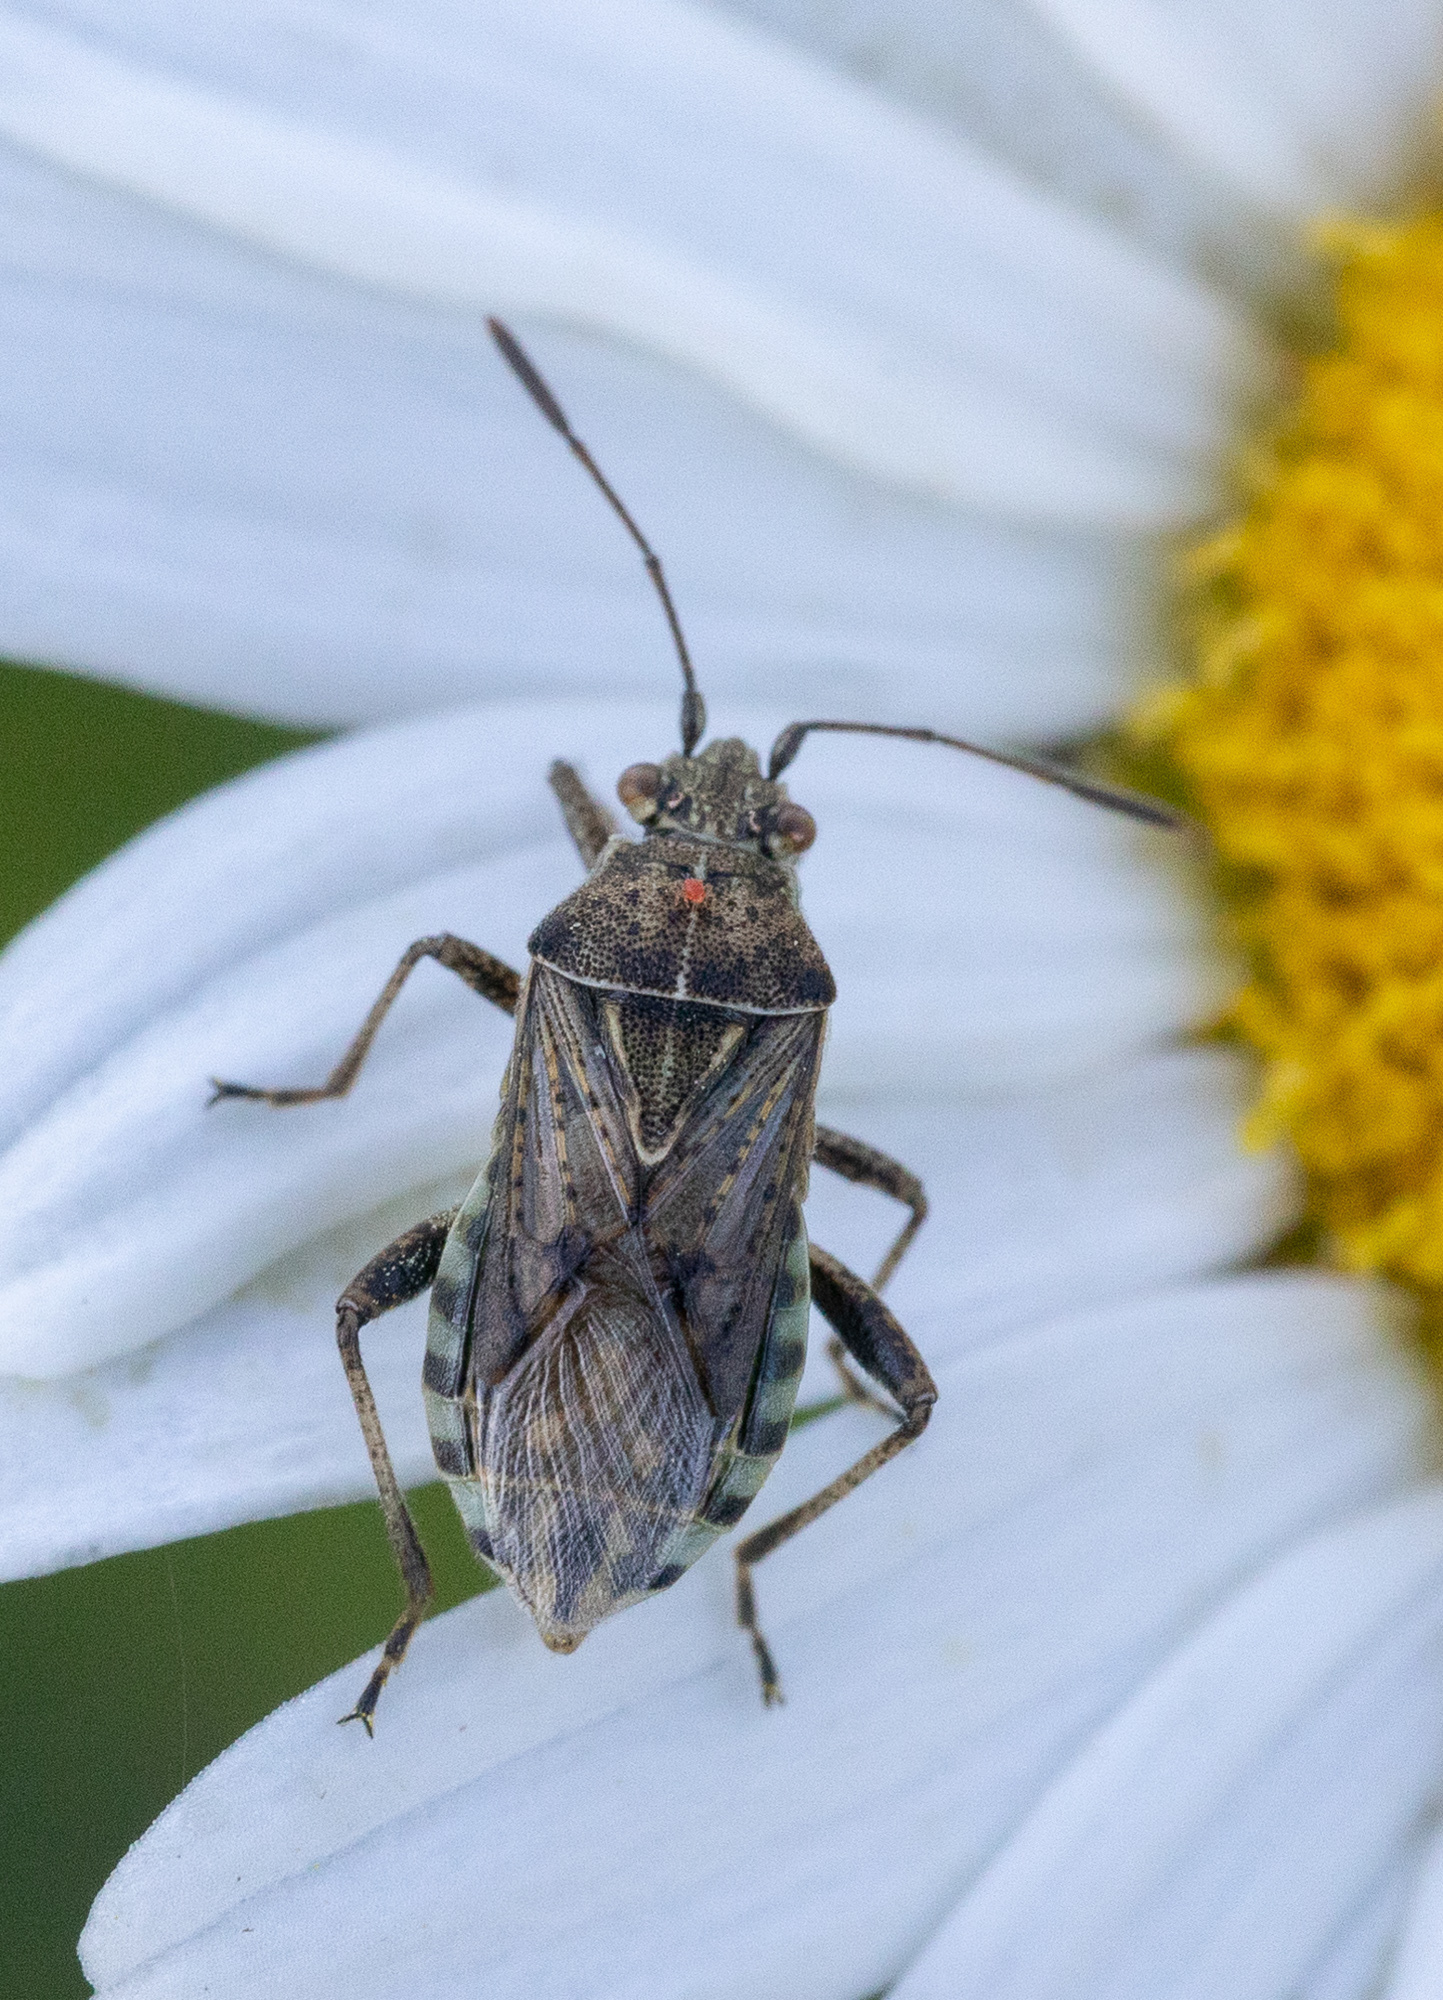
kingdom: Animalia
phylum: Arthropoda
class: Insecta
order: Hemiptera
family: Rhopalidae
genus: Stictopleurus
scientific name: Stictopleurus punctatonervosus
